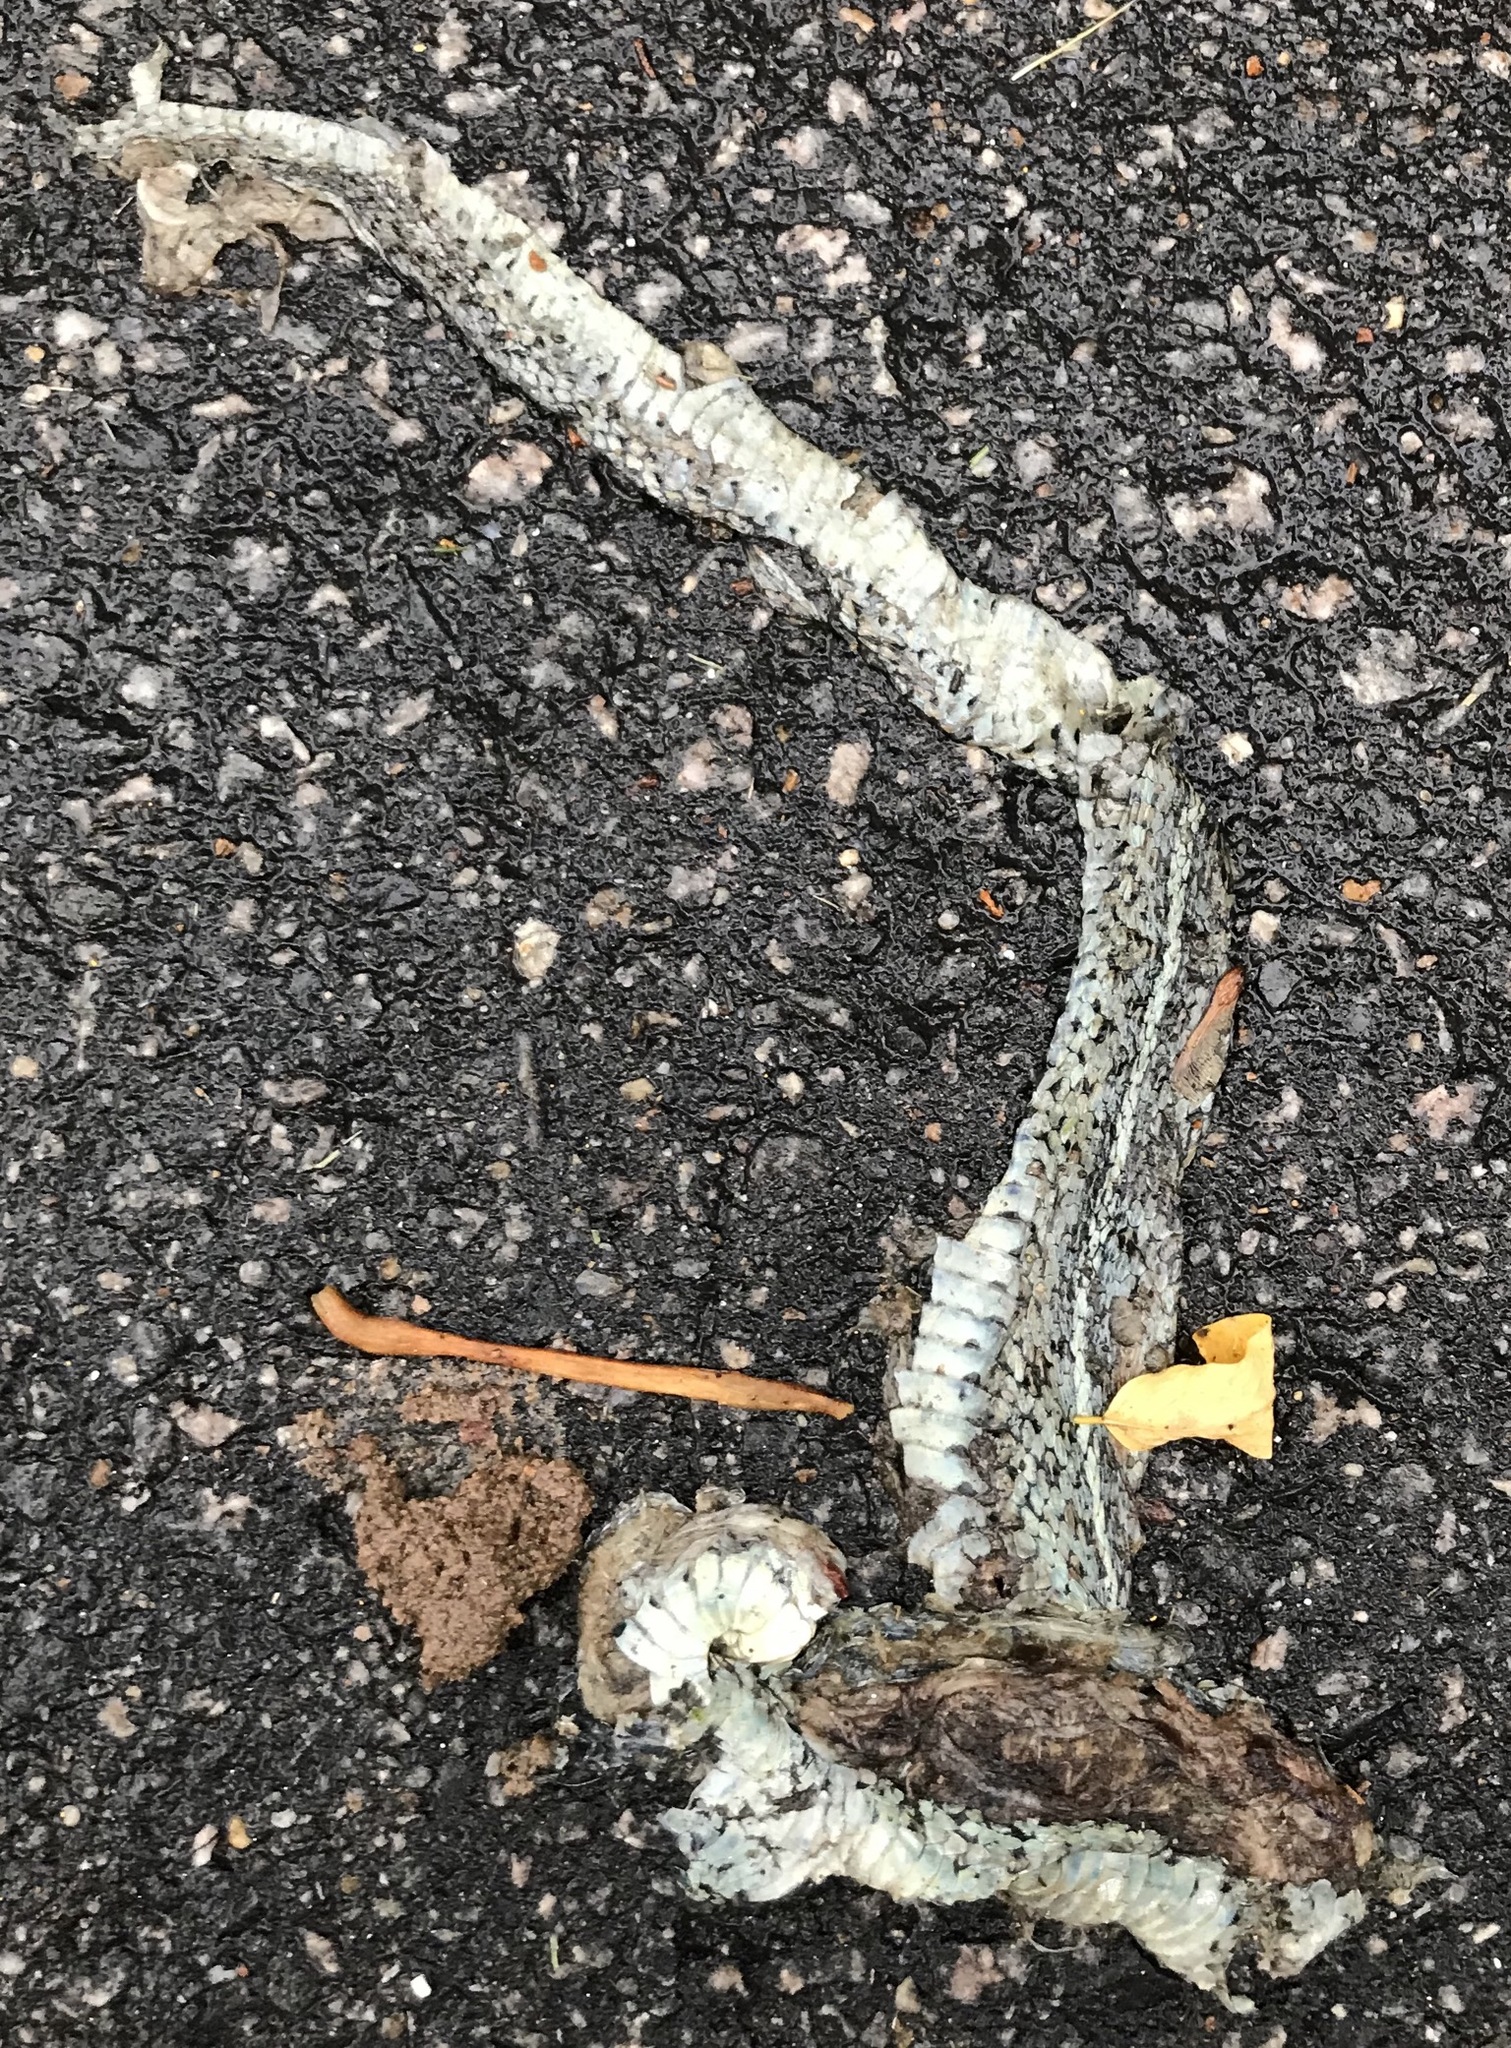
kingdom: Animalia
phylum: Chordata
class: Squamata
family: Colubridae
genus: Thamnophis
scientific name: Thamnophis sirtalis
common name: Common garter snake
